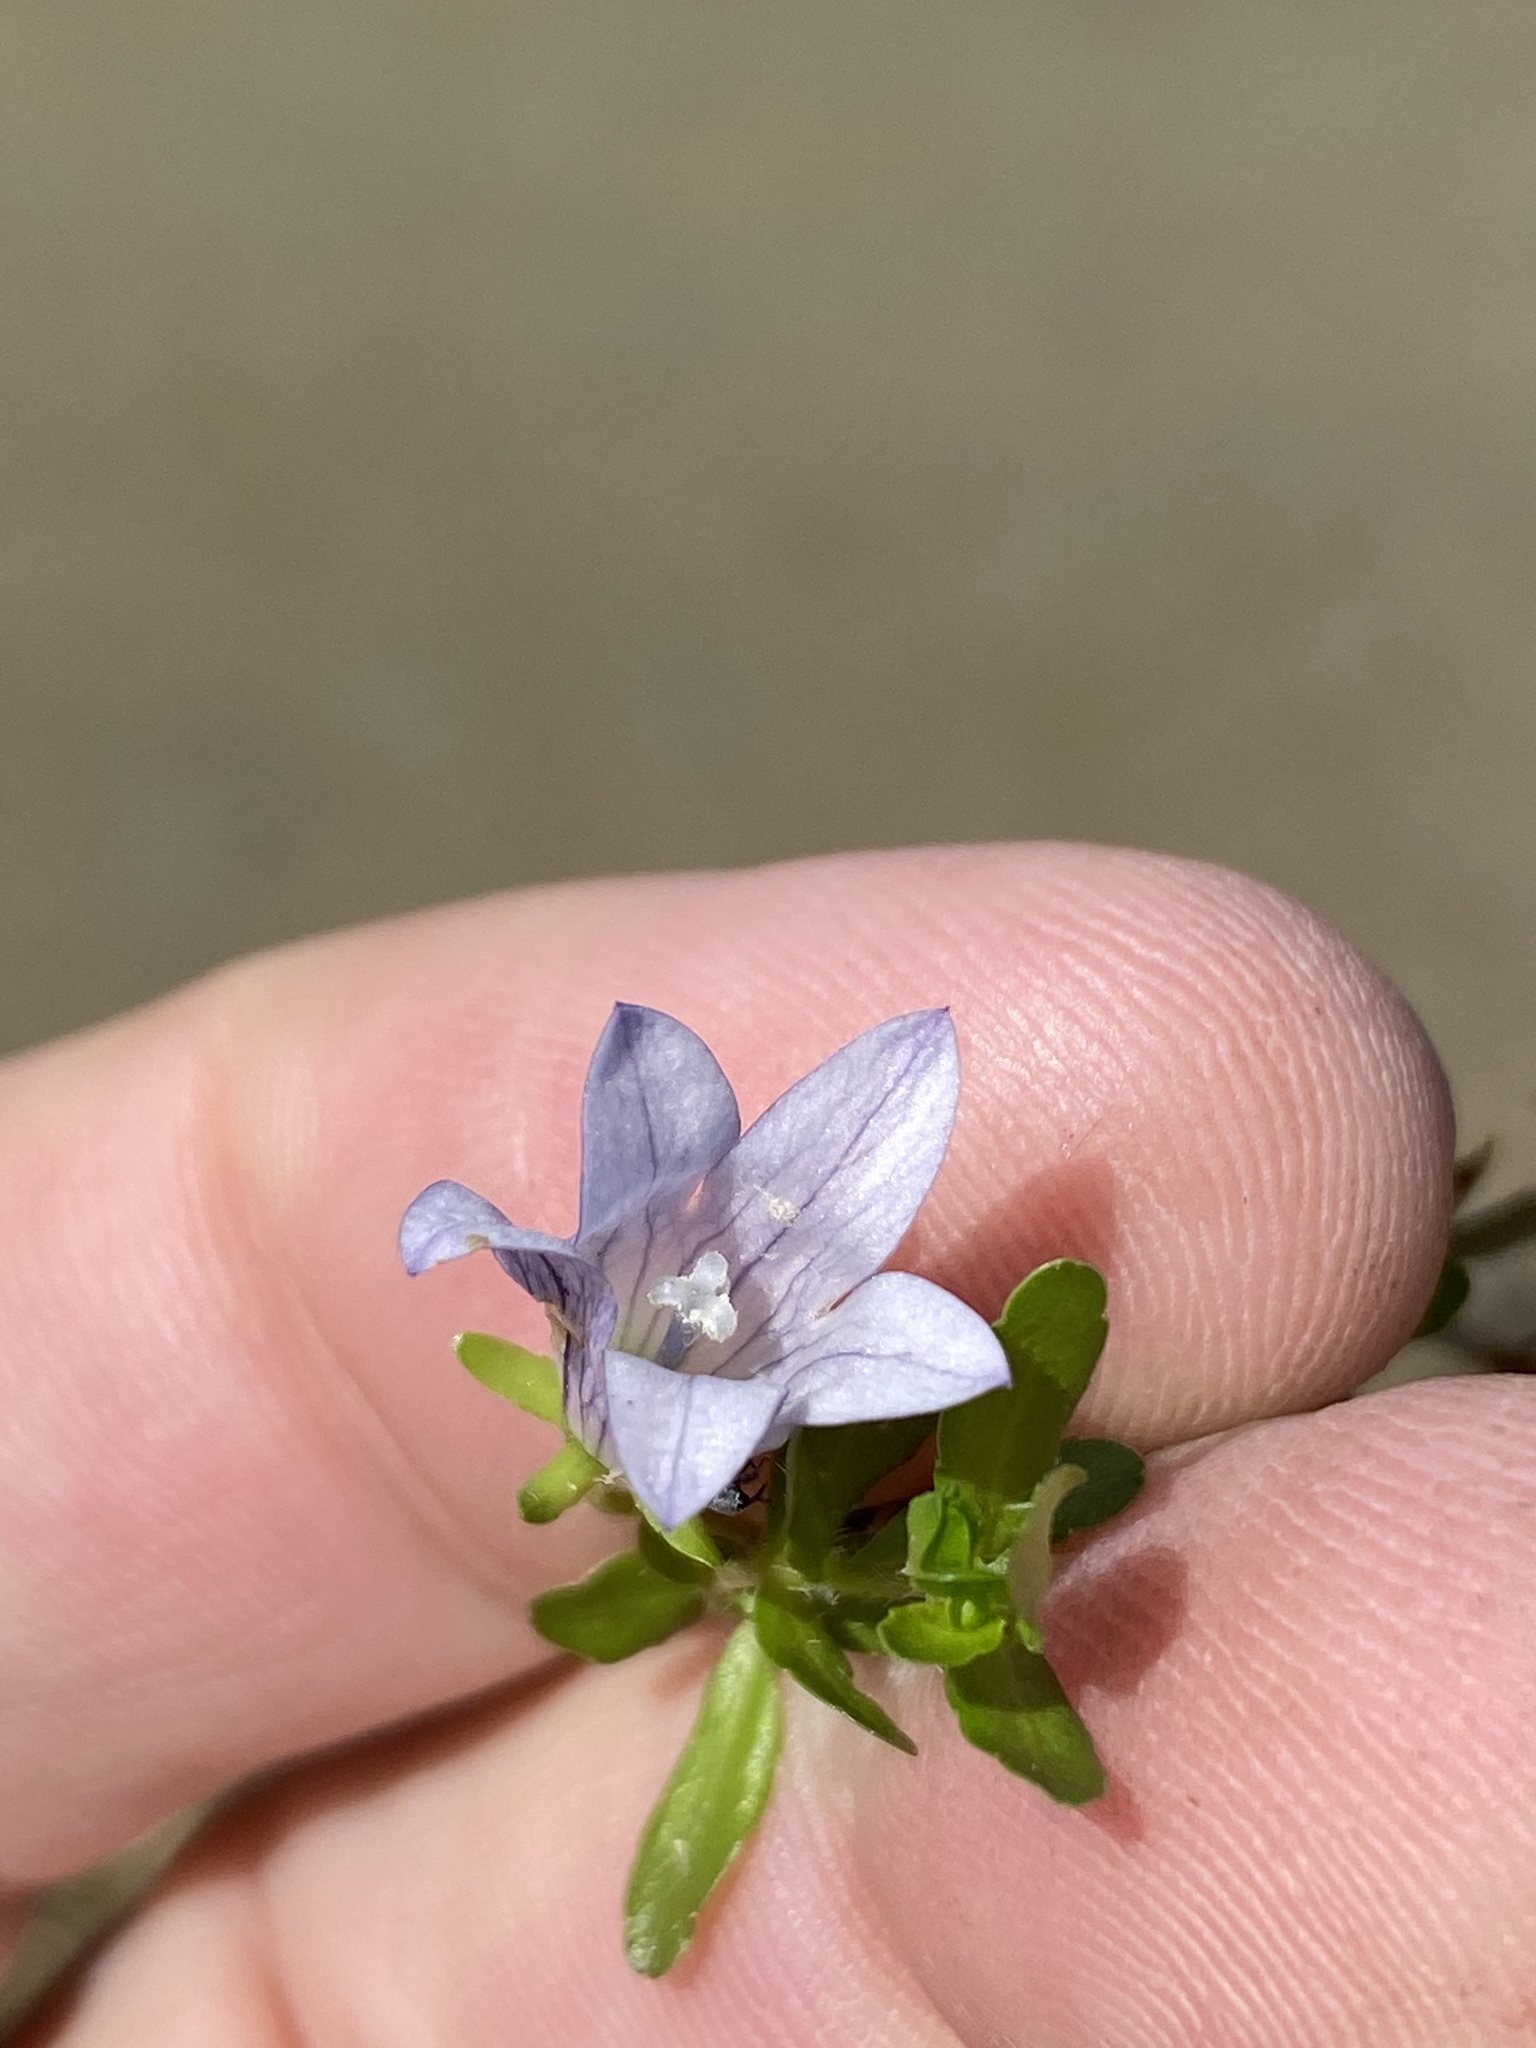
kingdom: Plantae
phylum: Tracheophyta
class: Magnoliopsida
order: Asterales
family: Campanulaceae
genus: Wahlenbergia
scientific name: Wahlenbergia procumbens
